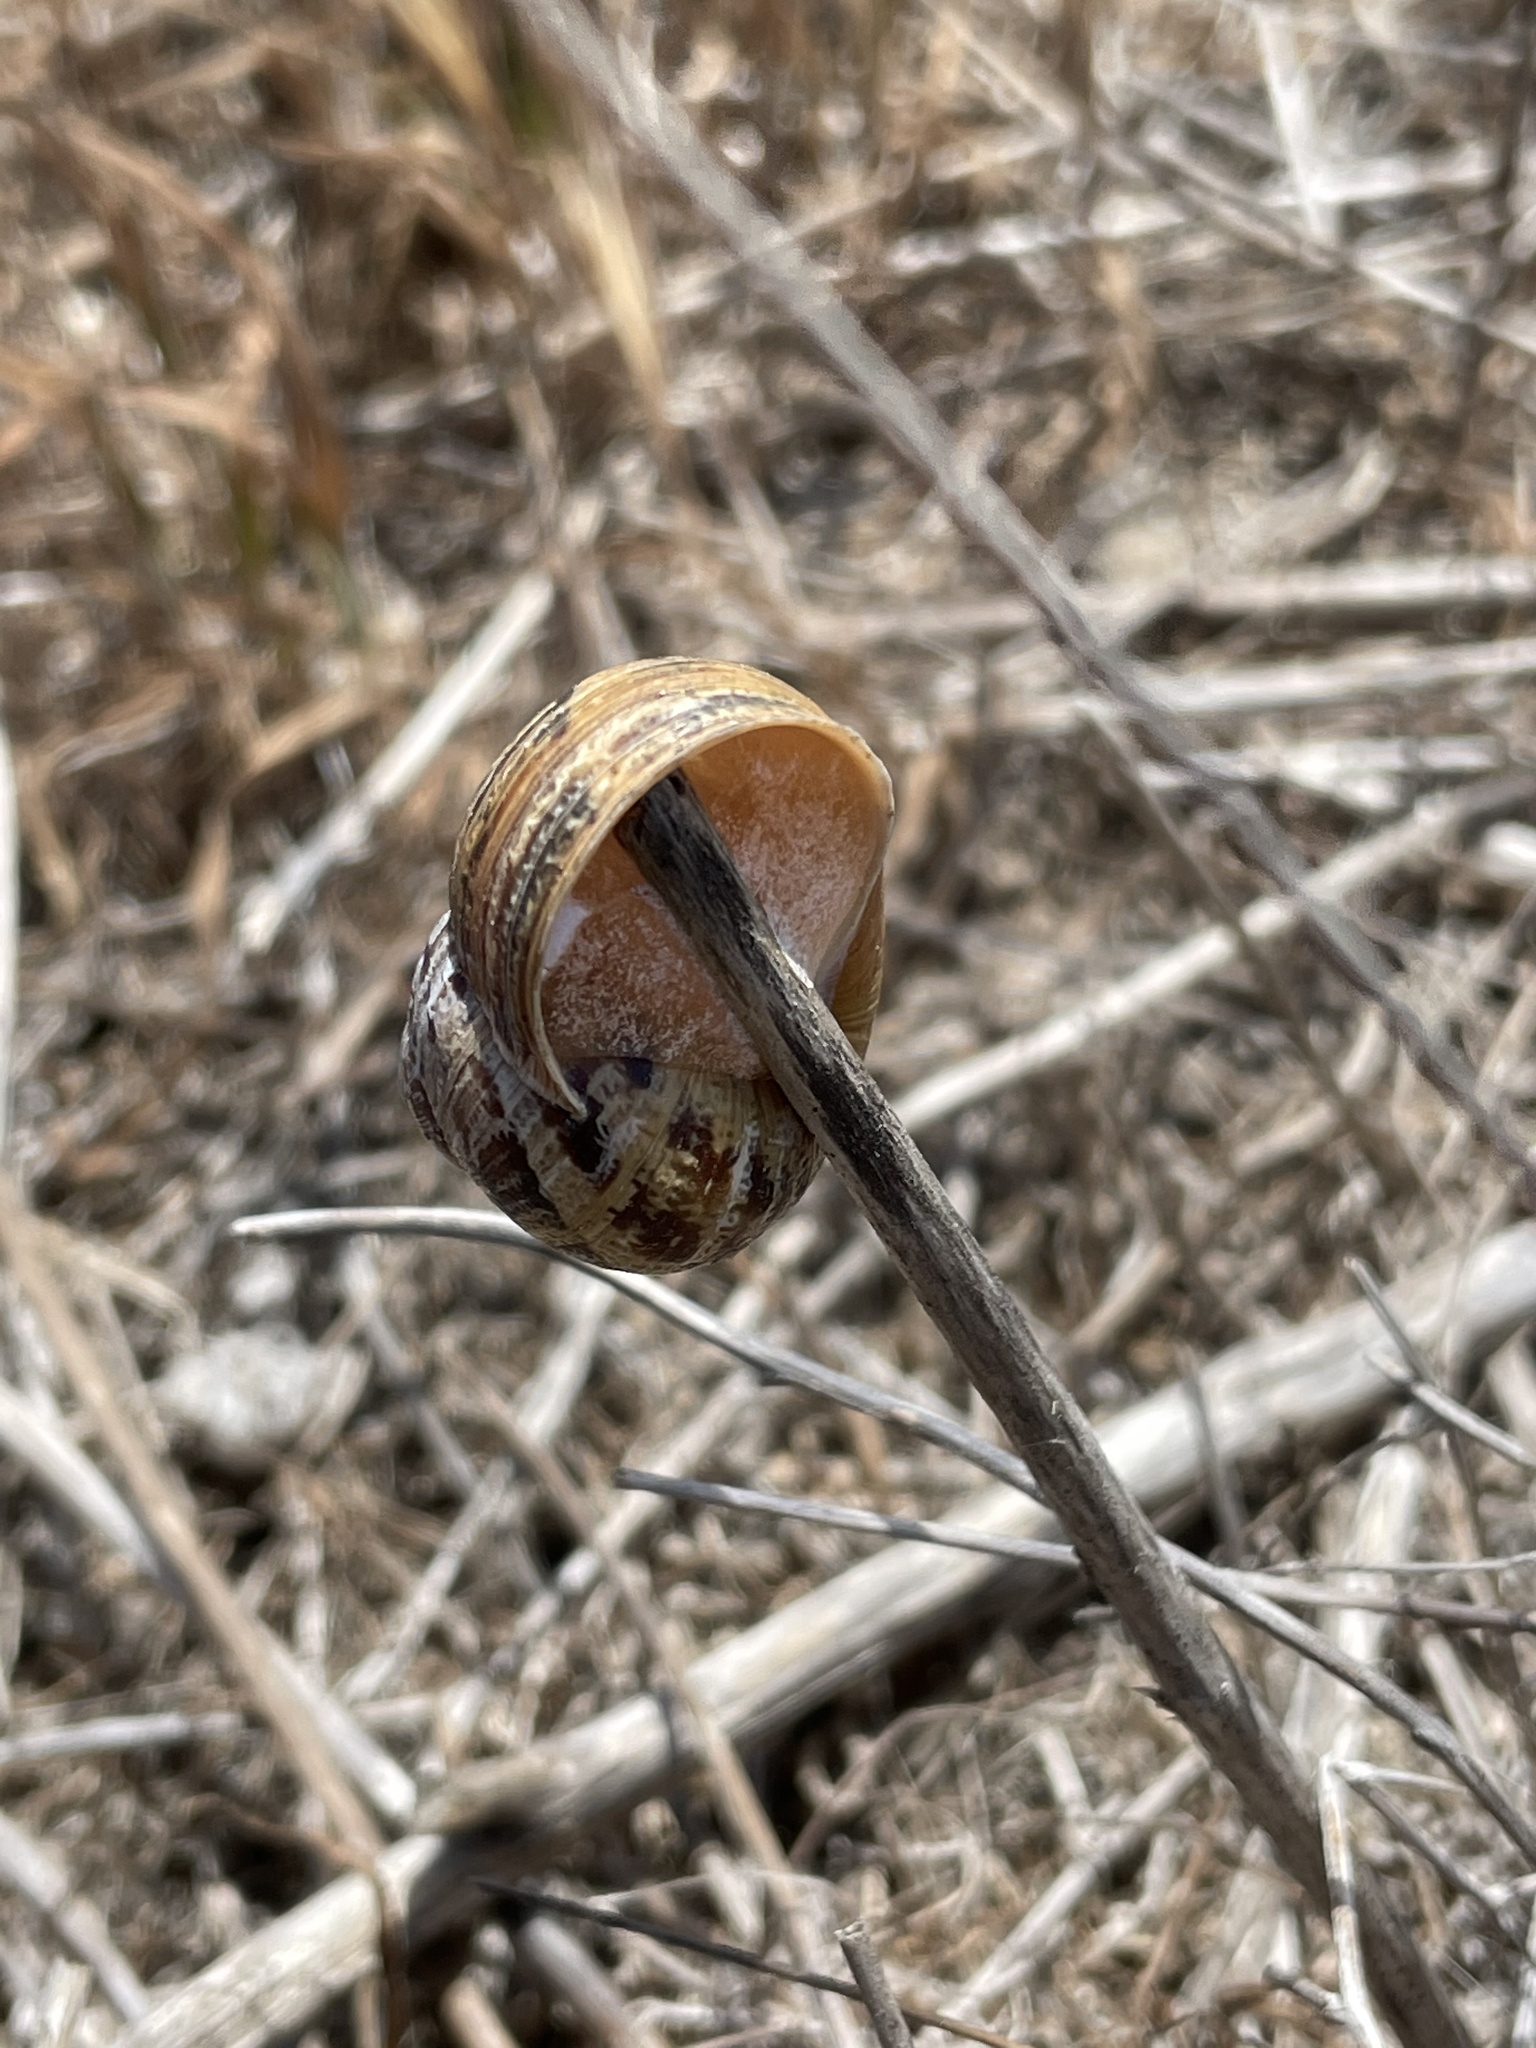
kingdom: Animalia
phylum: Mollusca
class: Gastropoda
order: Stylommatophora
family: Helicidae
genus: Cornu
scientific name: Cornu aspersum
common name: Brown garden snail
